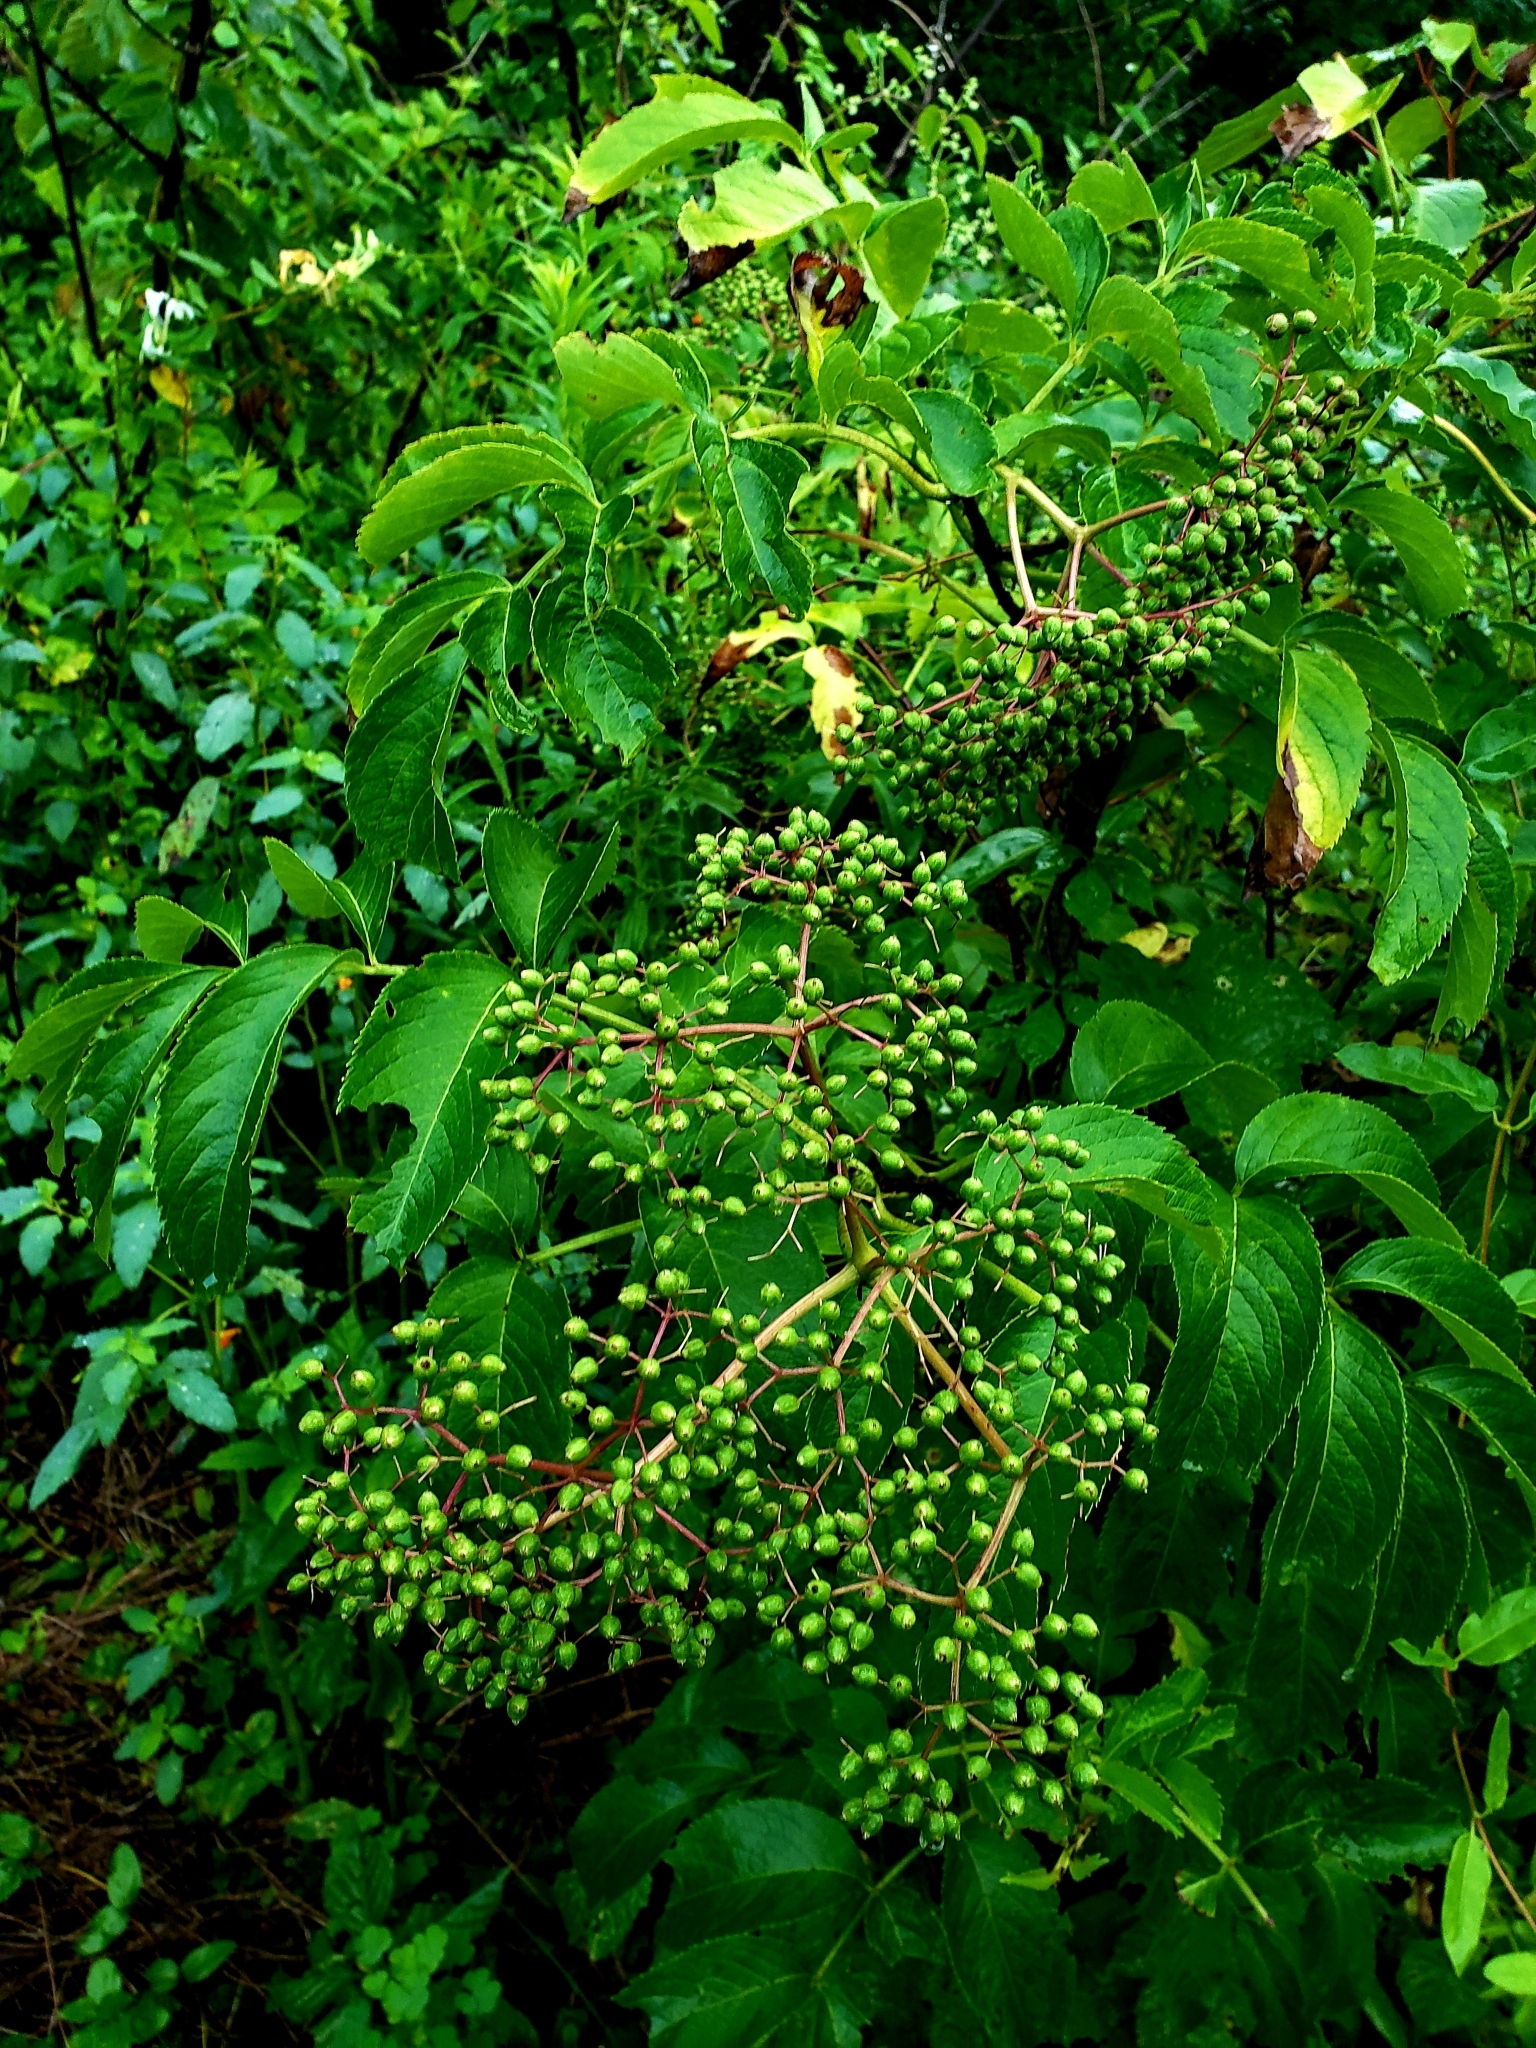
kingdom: Plantae
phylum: Tracheophyta
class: Magnoliopsida
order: Dipsacales
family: Viburnaceae
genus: Sambucus
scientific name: Sambucus canadensis
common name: American elder
